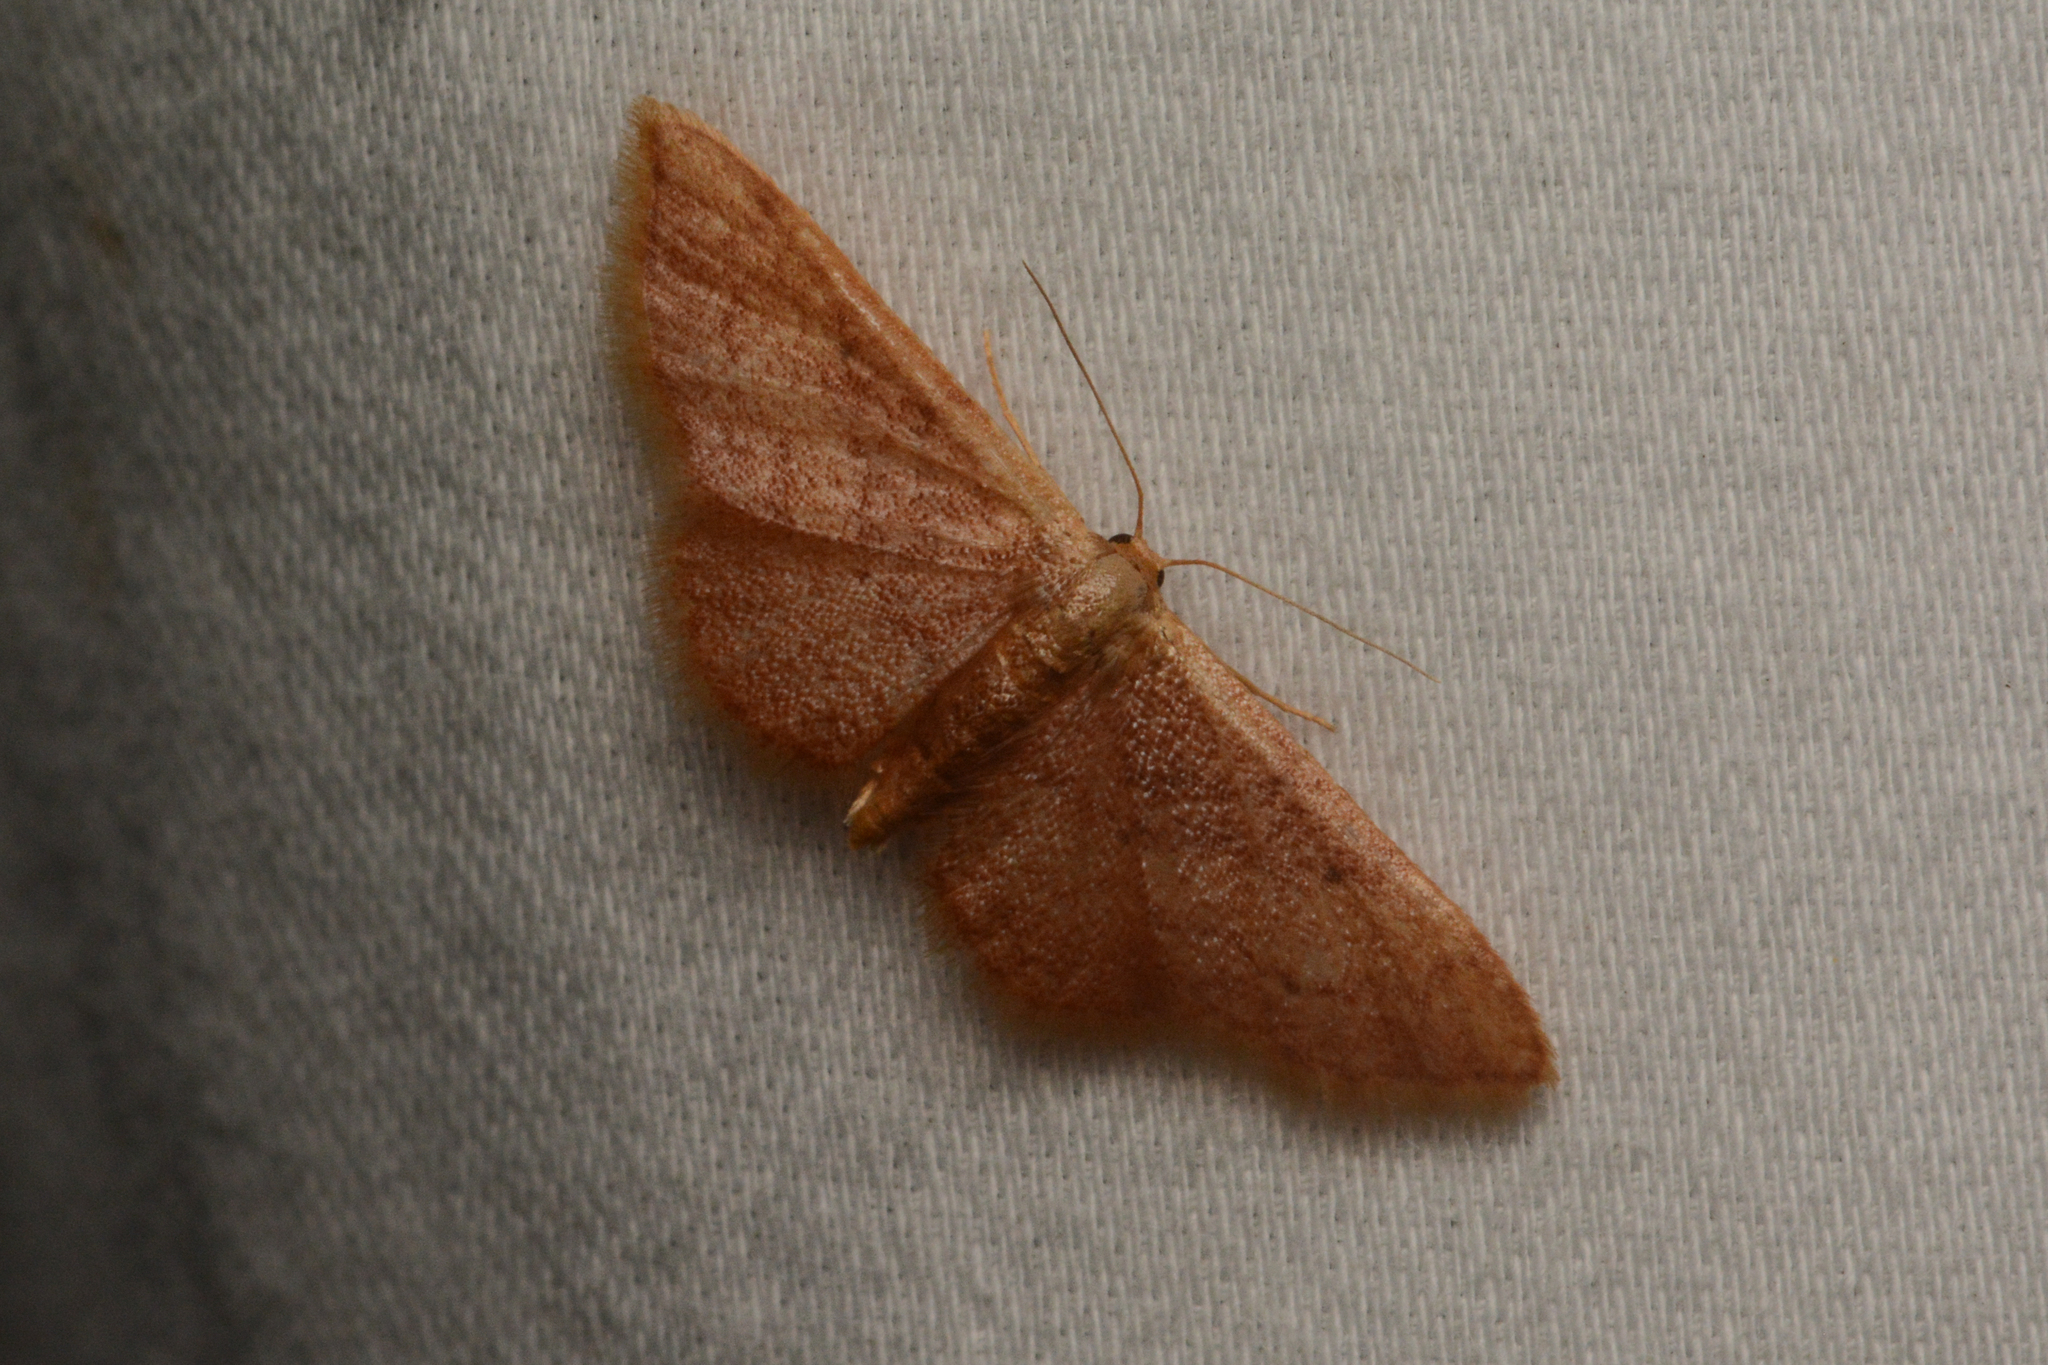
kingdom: Animalia
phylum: Arthropoda
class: Insecta
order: Lepidoptera
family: Geometridae
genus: Idaea
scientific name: Idaea demissaria
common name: Red-bordered wave
